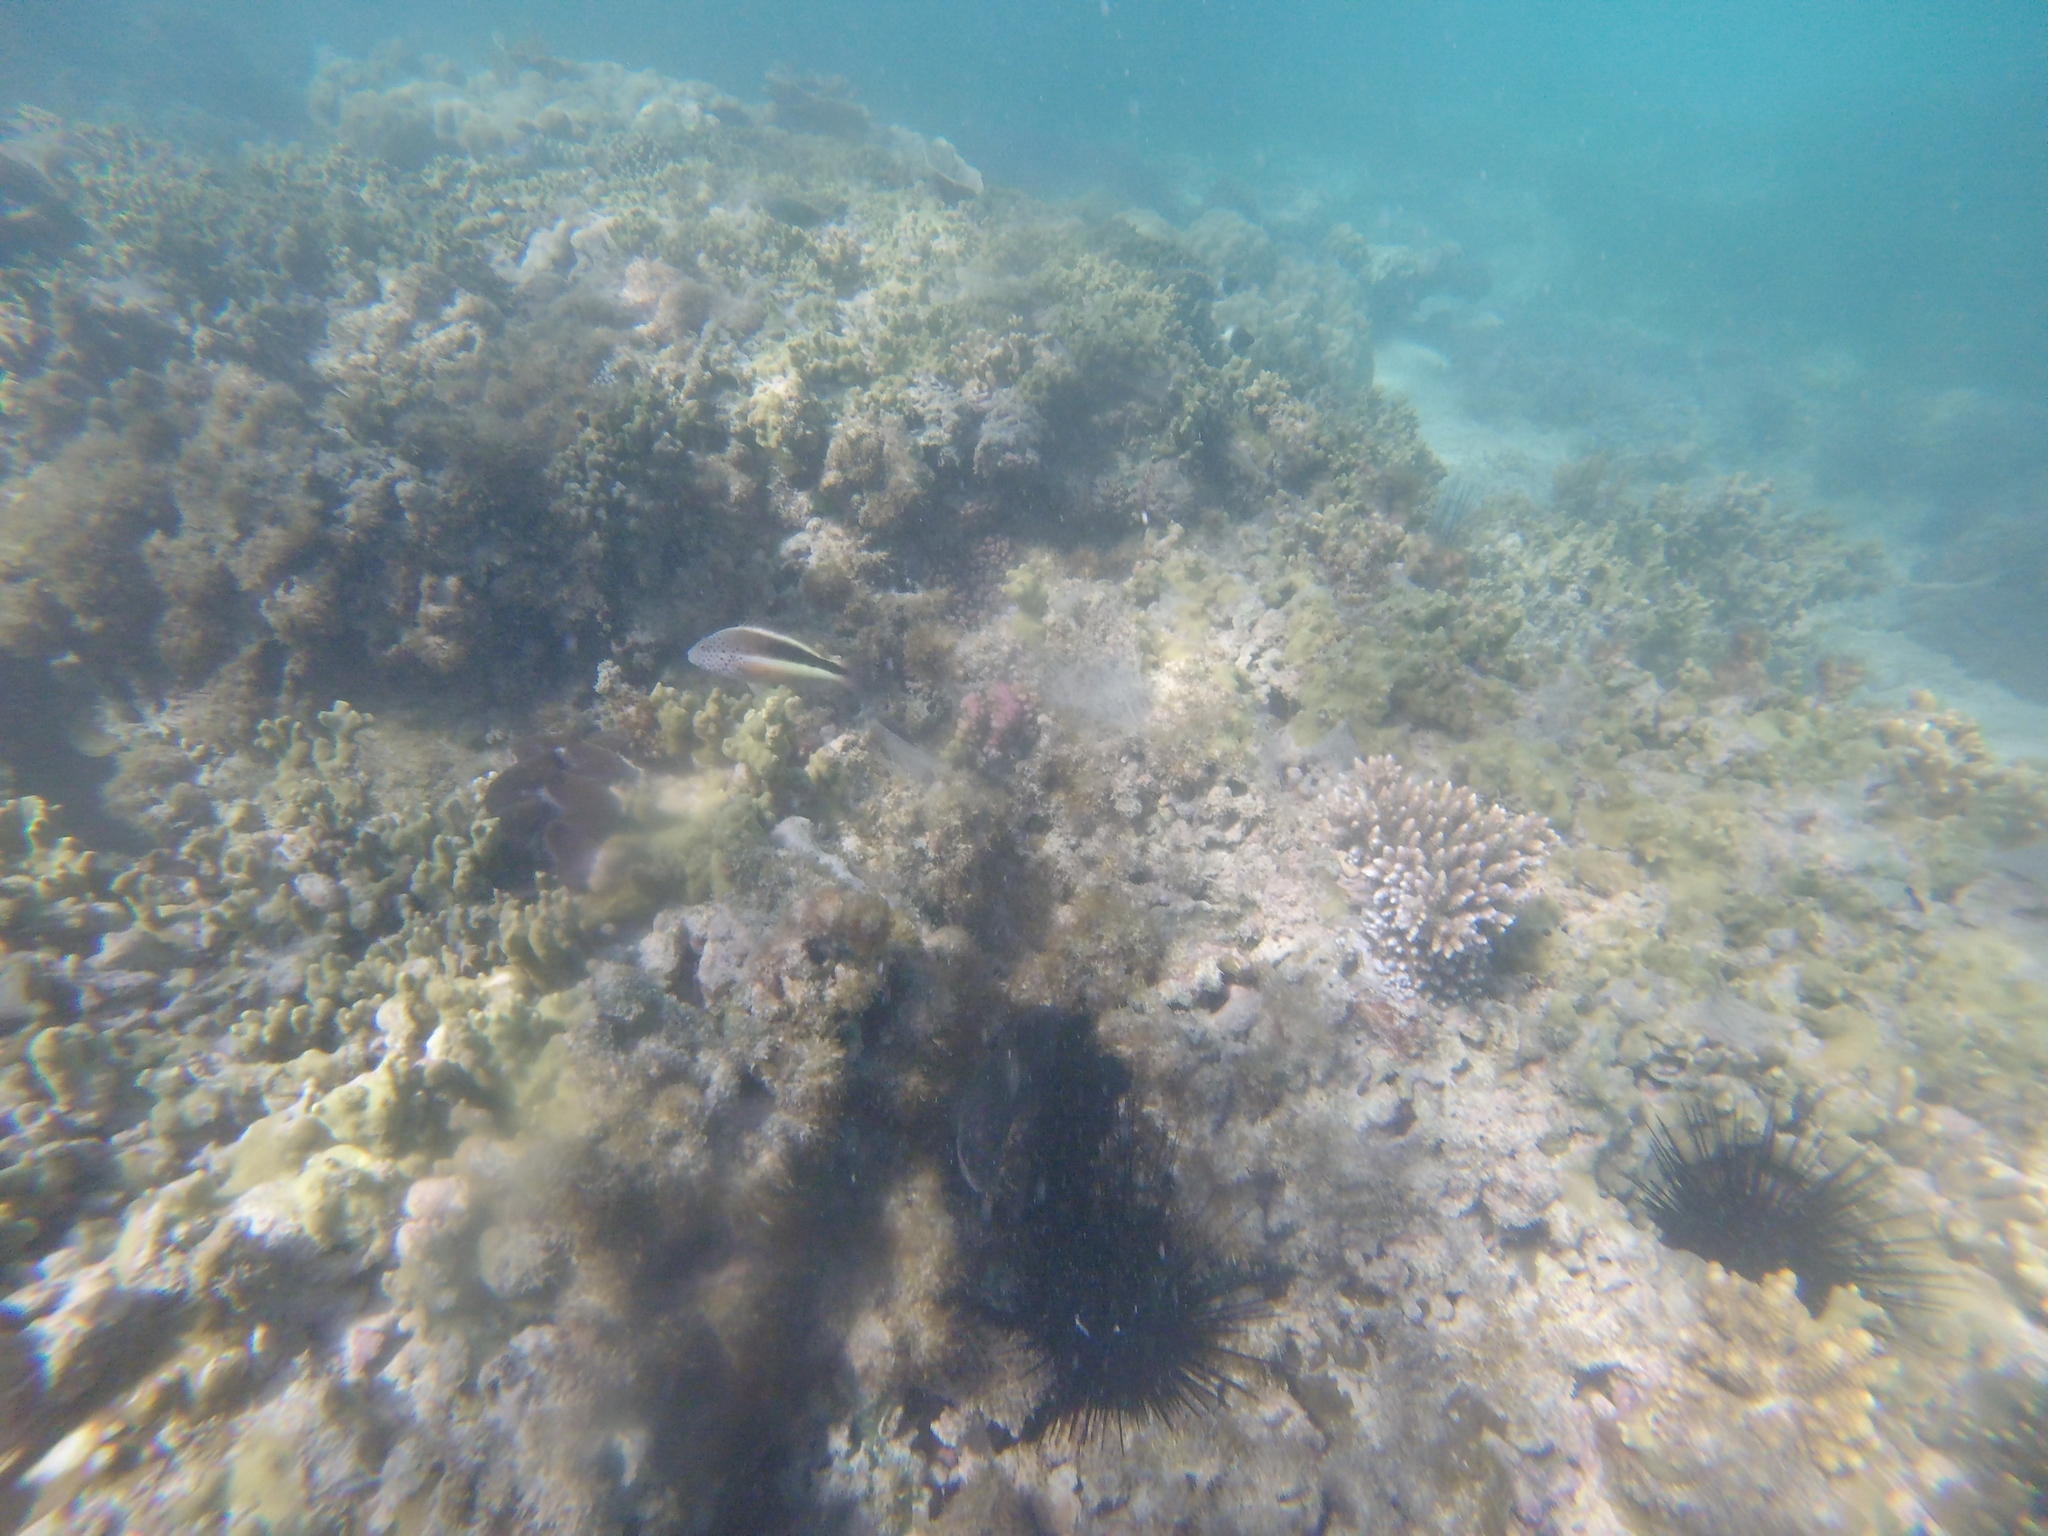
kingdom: Animalia
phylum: Chordata
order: Perciformes
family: Cirrhitidae
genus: Paracirrhites
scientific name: Paracirrhites forsteri
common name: Freckled hawkfish
